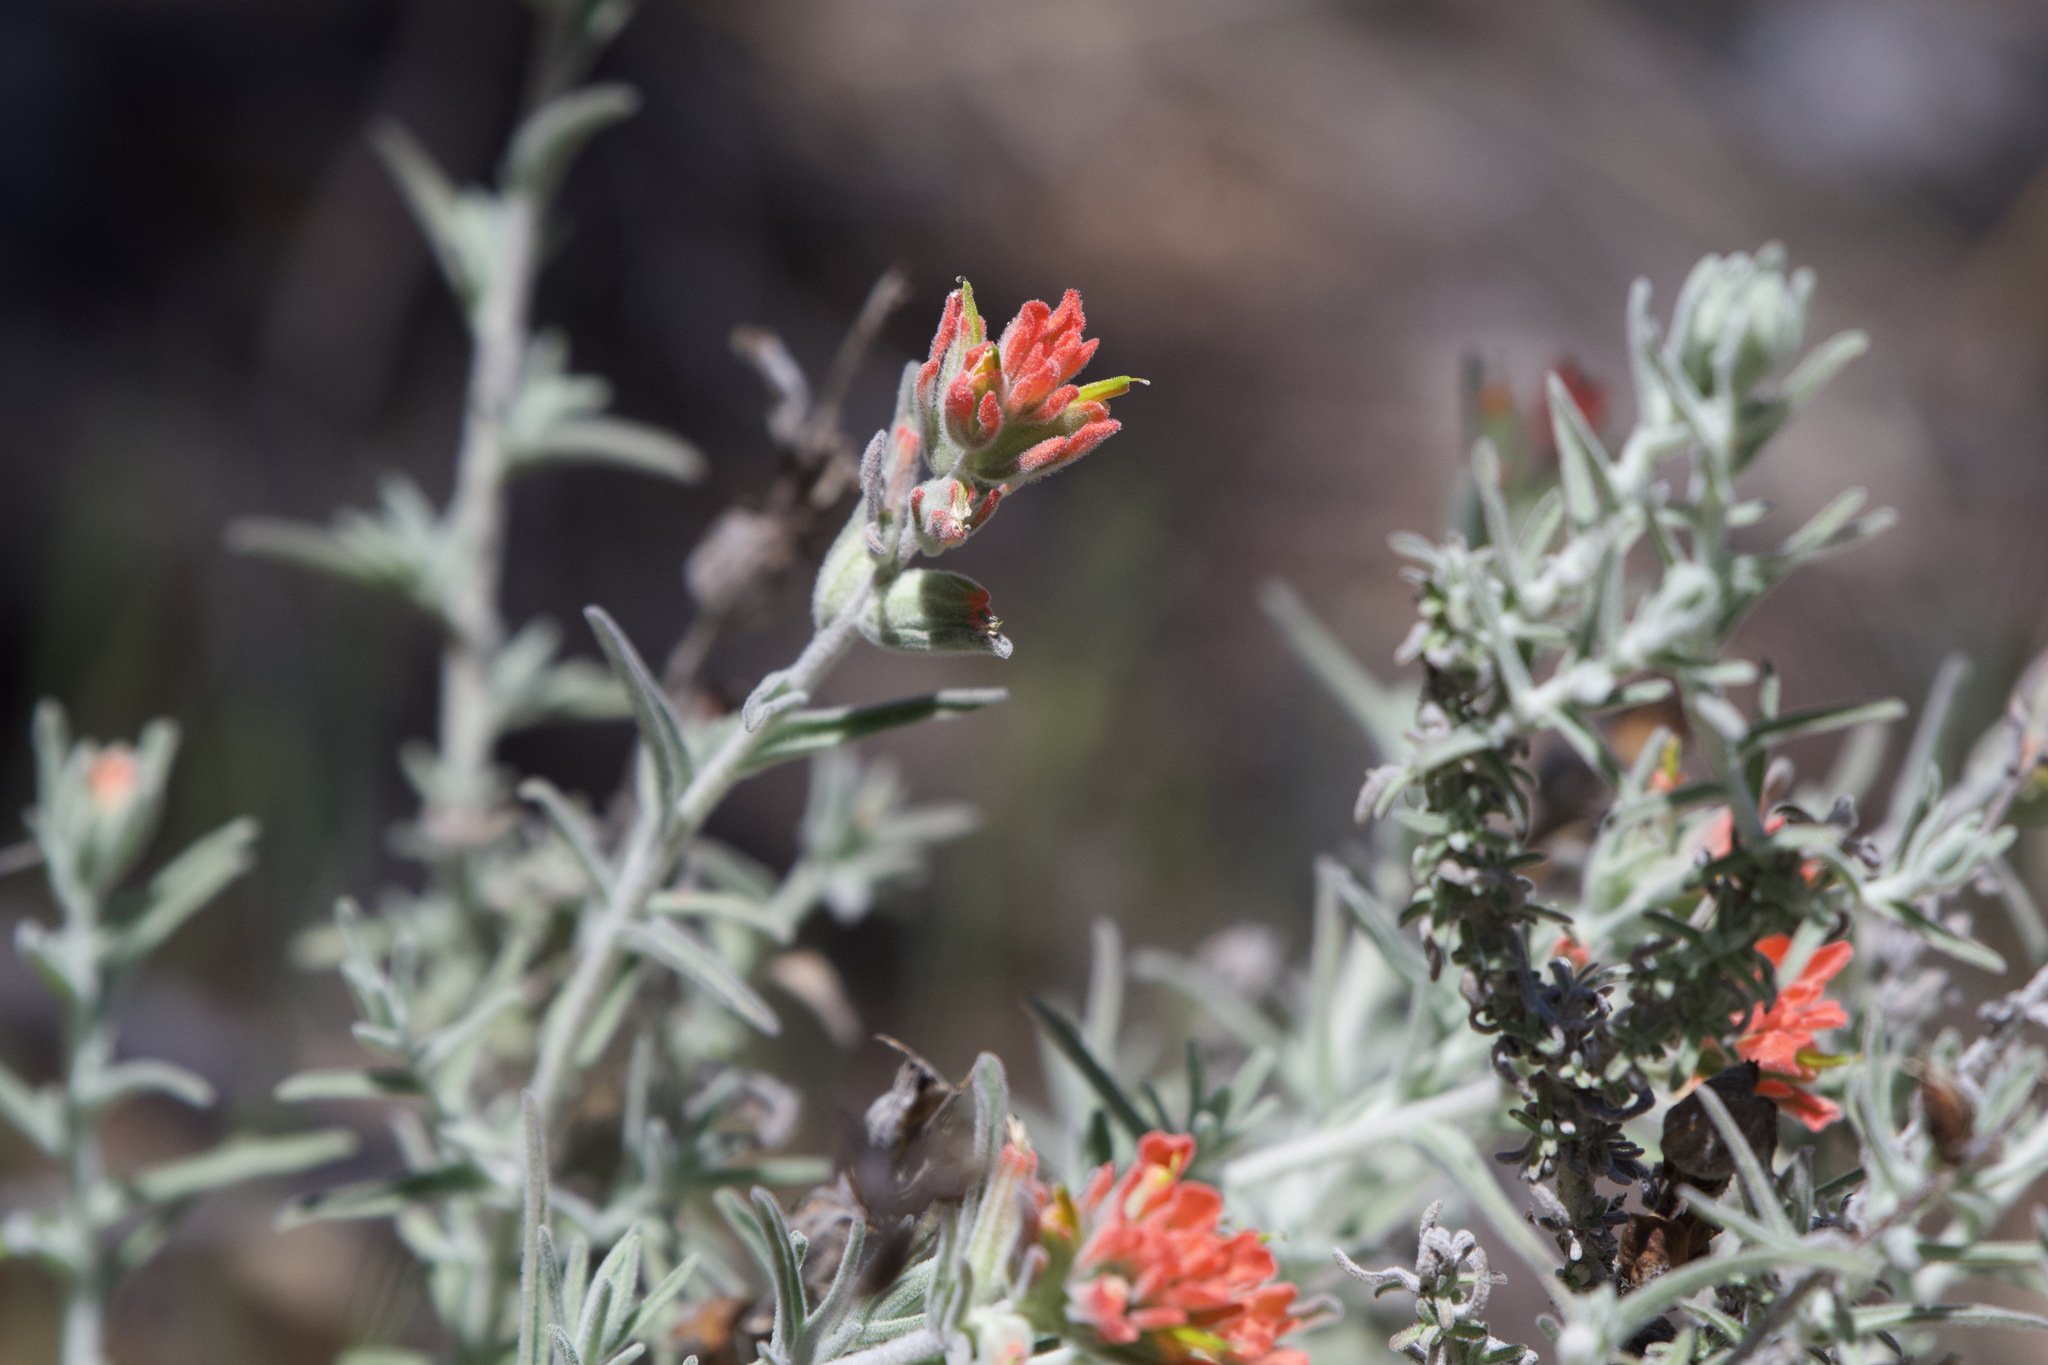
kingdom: Plantae
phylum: Tracheophyta
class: Magnoliopsida
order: Lamiales
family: Orobanchaceae
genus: Castilleja
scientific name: Castilleja foliolosa
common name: Woolly indian paintbrush
